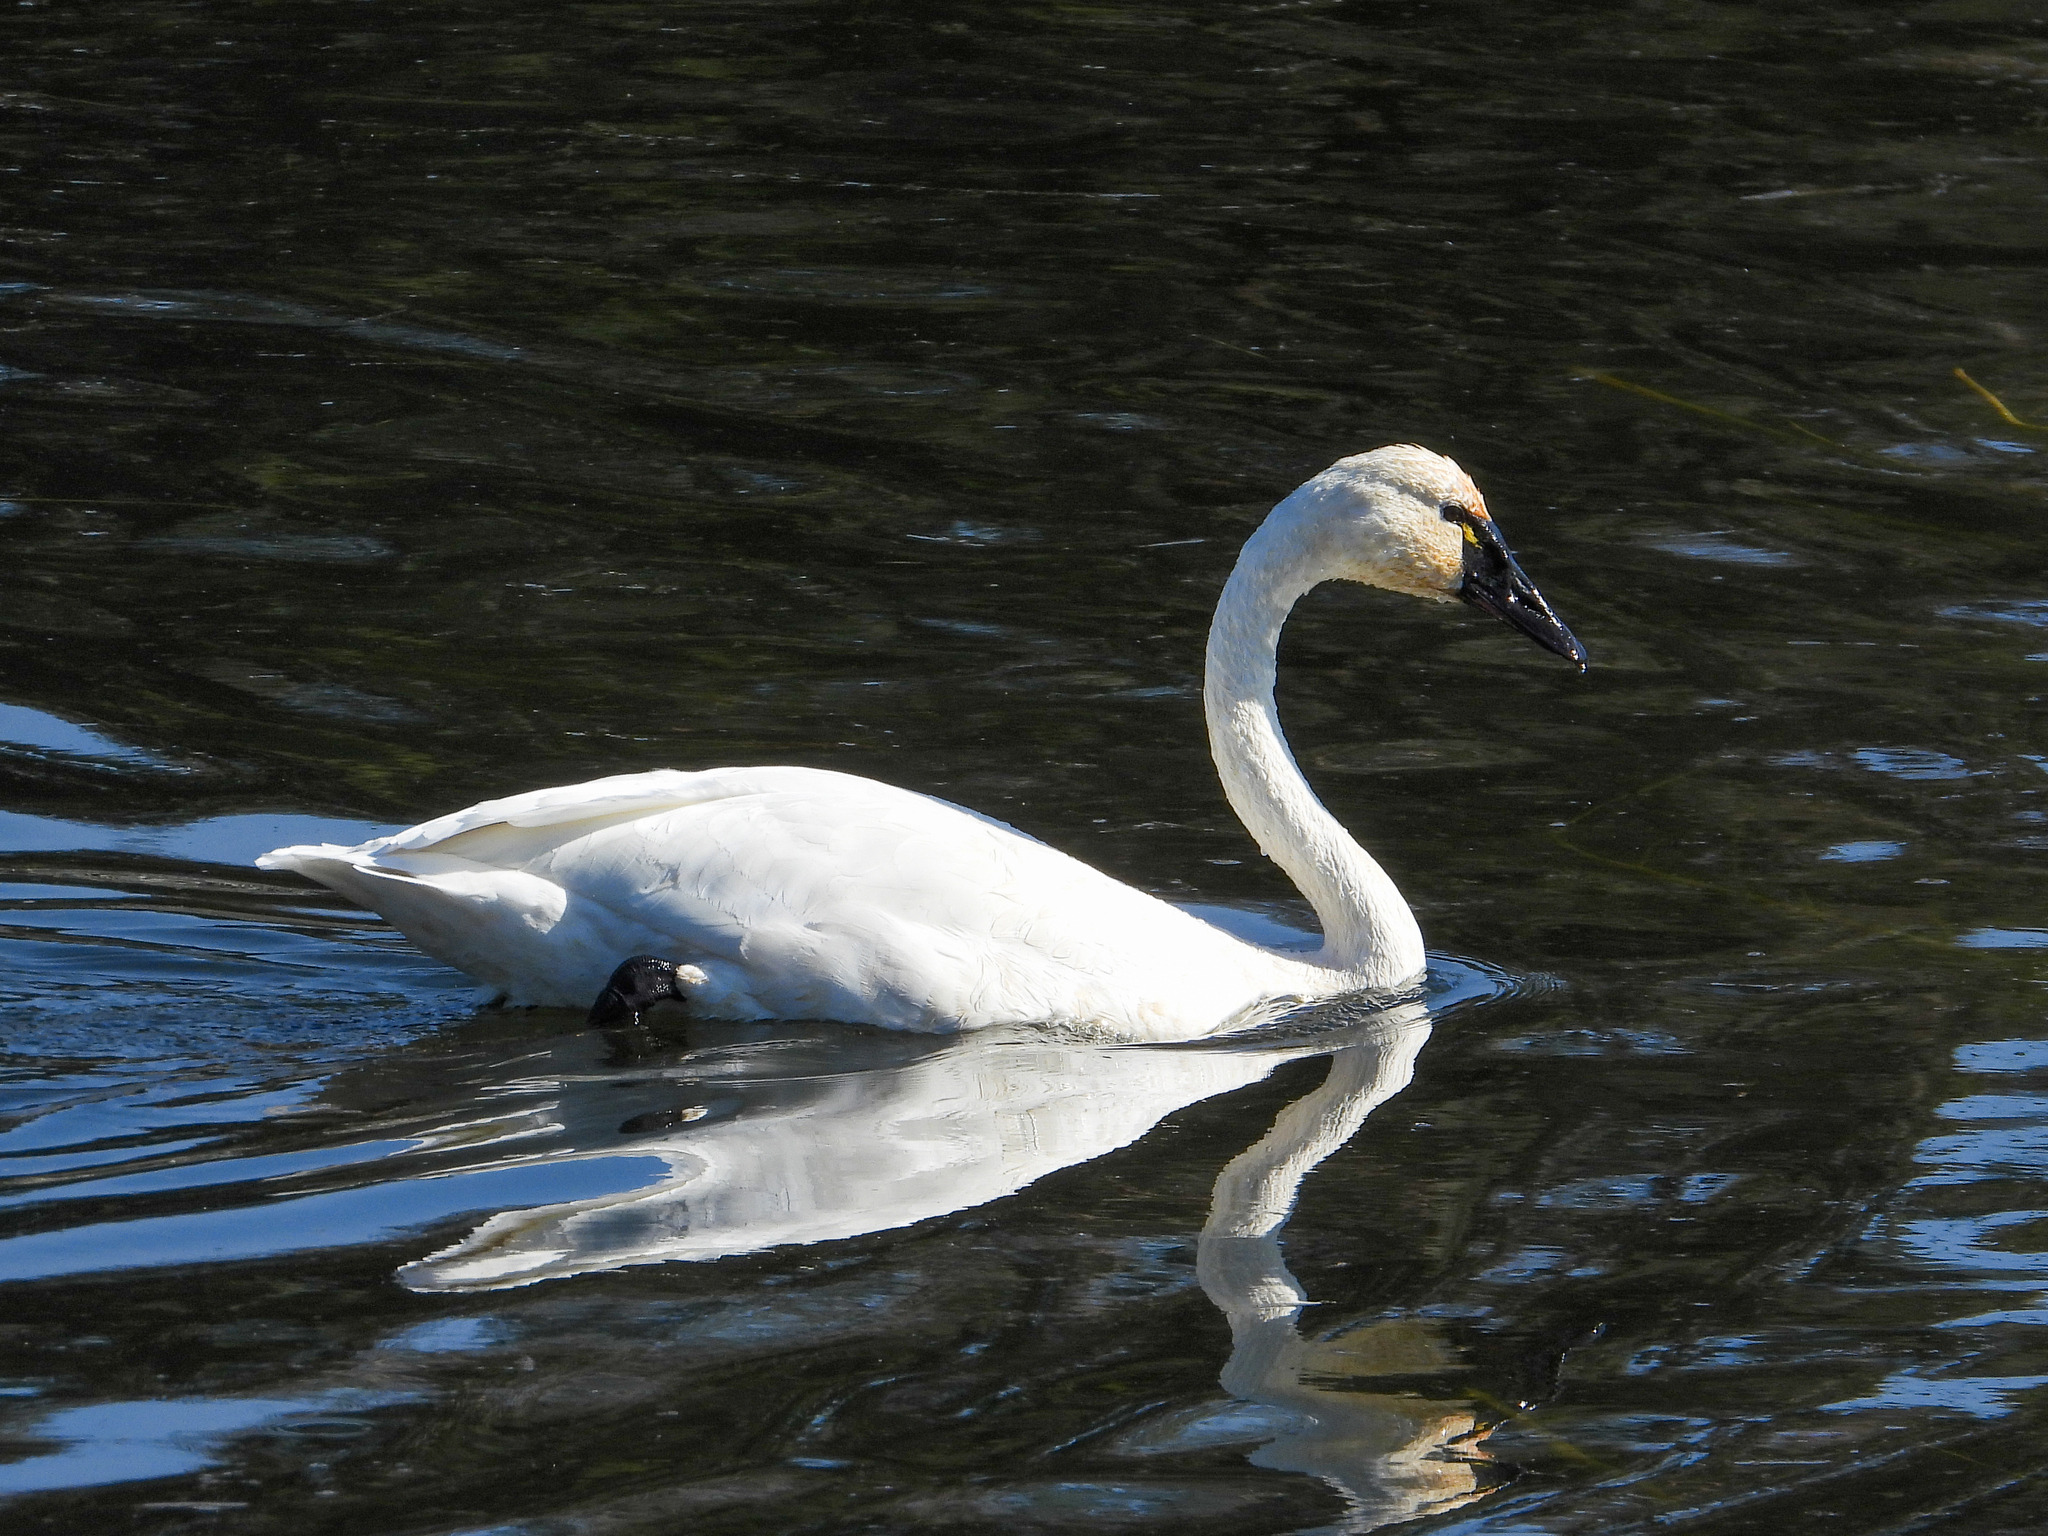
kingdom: Animalia
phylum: Chordata
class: Aves
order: Anseriformes
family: Anatidae
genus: Cygnus
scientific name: Cygnus columbianus
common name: Tundra swan
